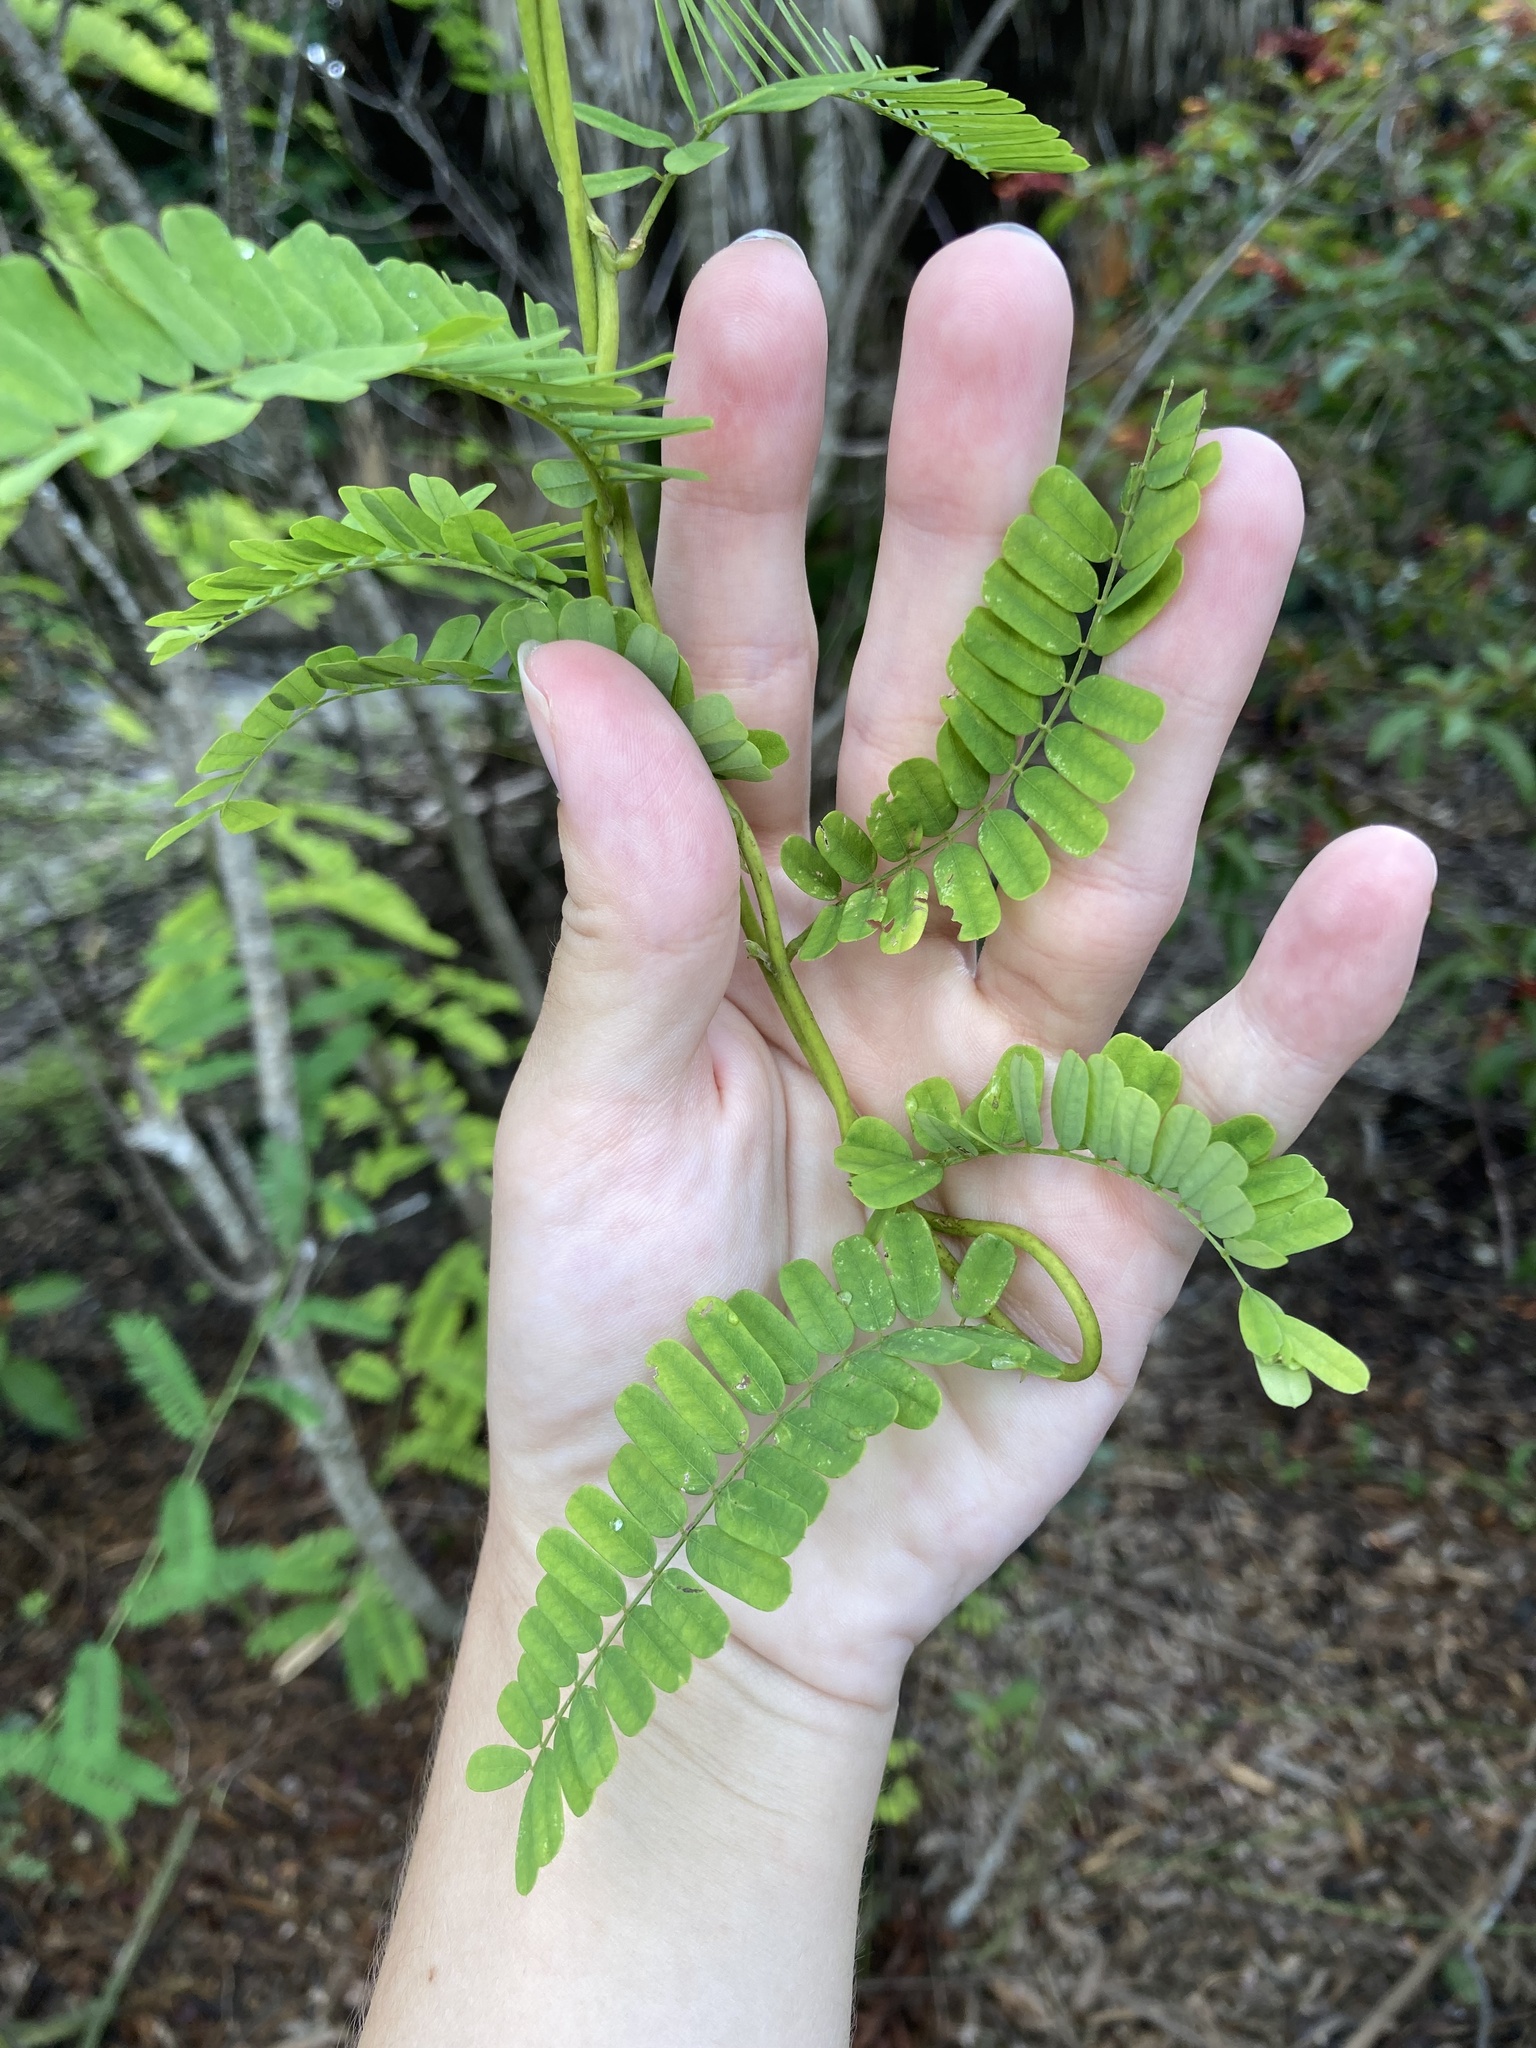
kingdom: Plantae
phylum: Tracheophyta
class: Magnoliopsida
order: Fabales
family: Fabaceae
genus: Abrus
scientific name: Abrus precatorius
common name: Rosarypea
